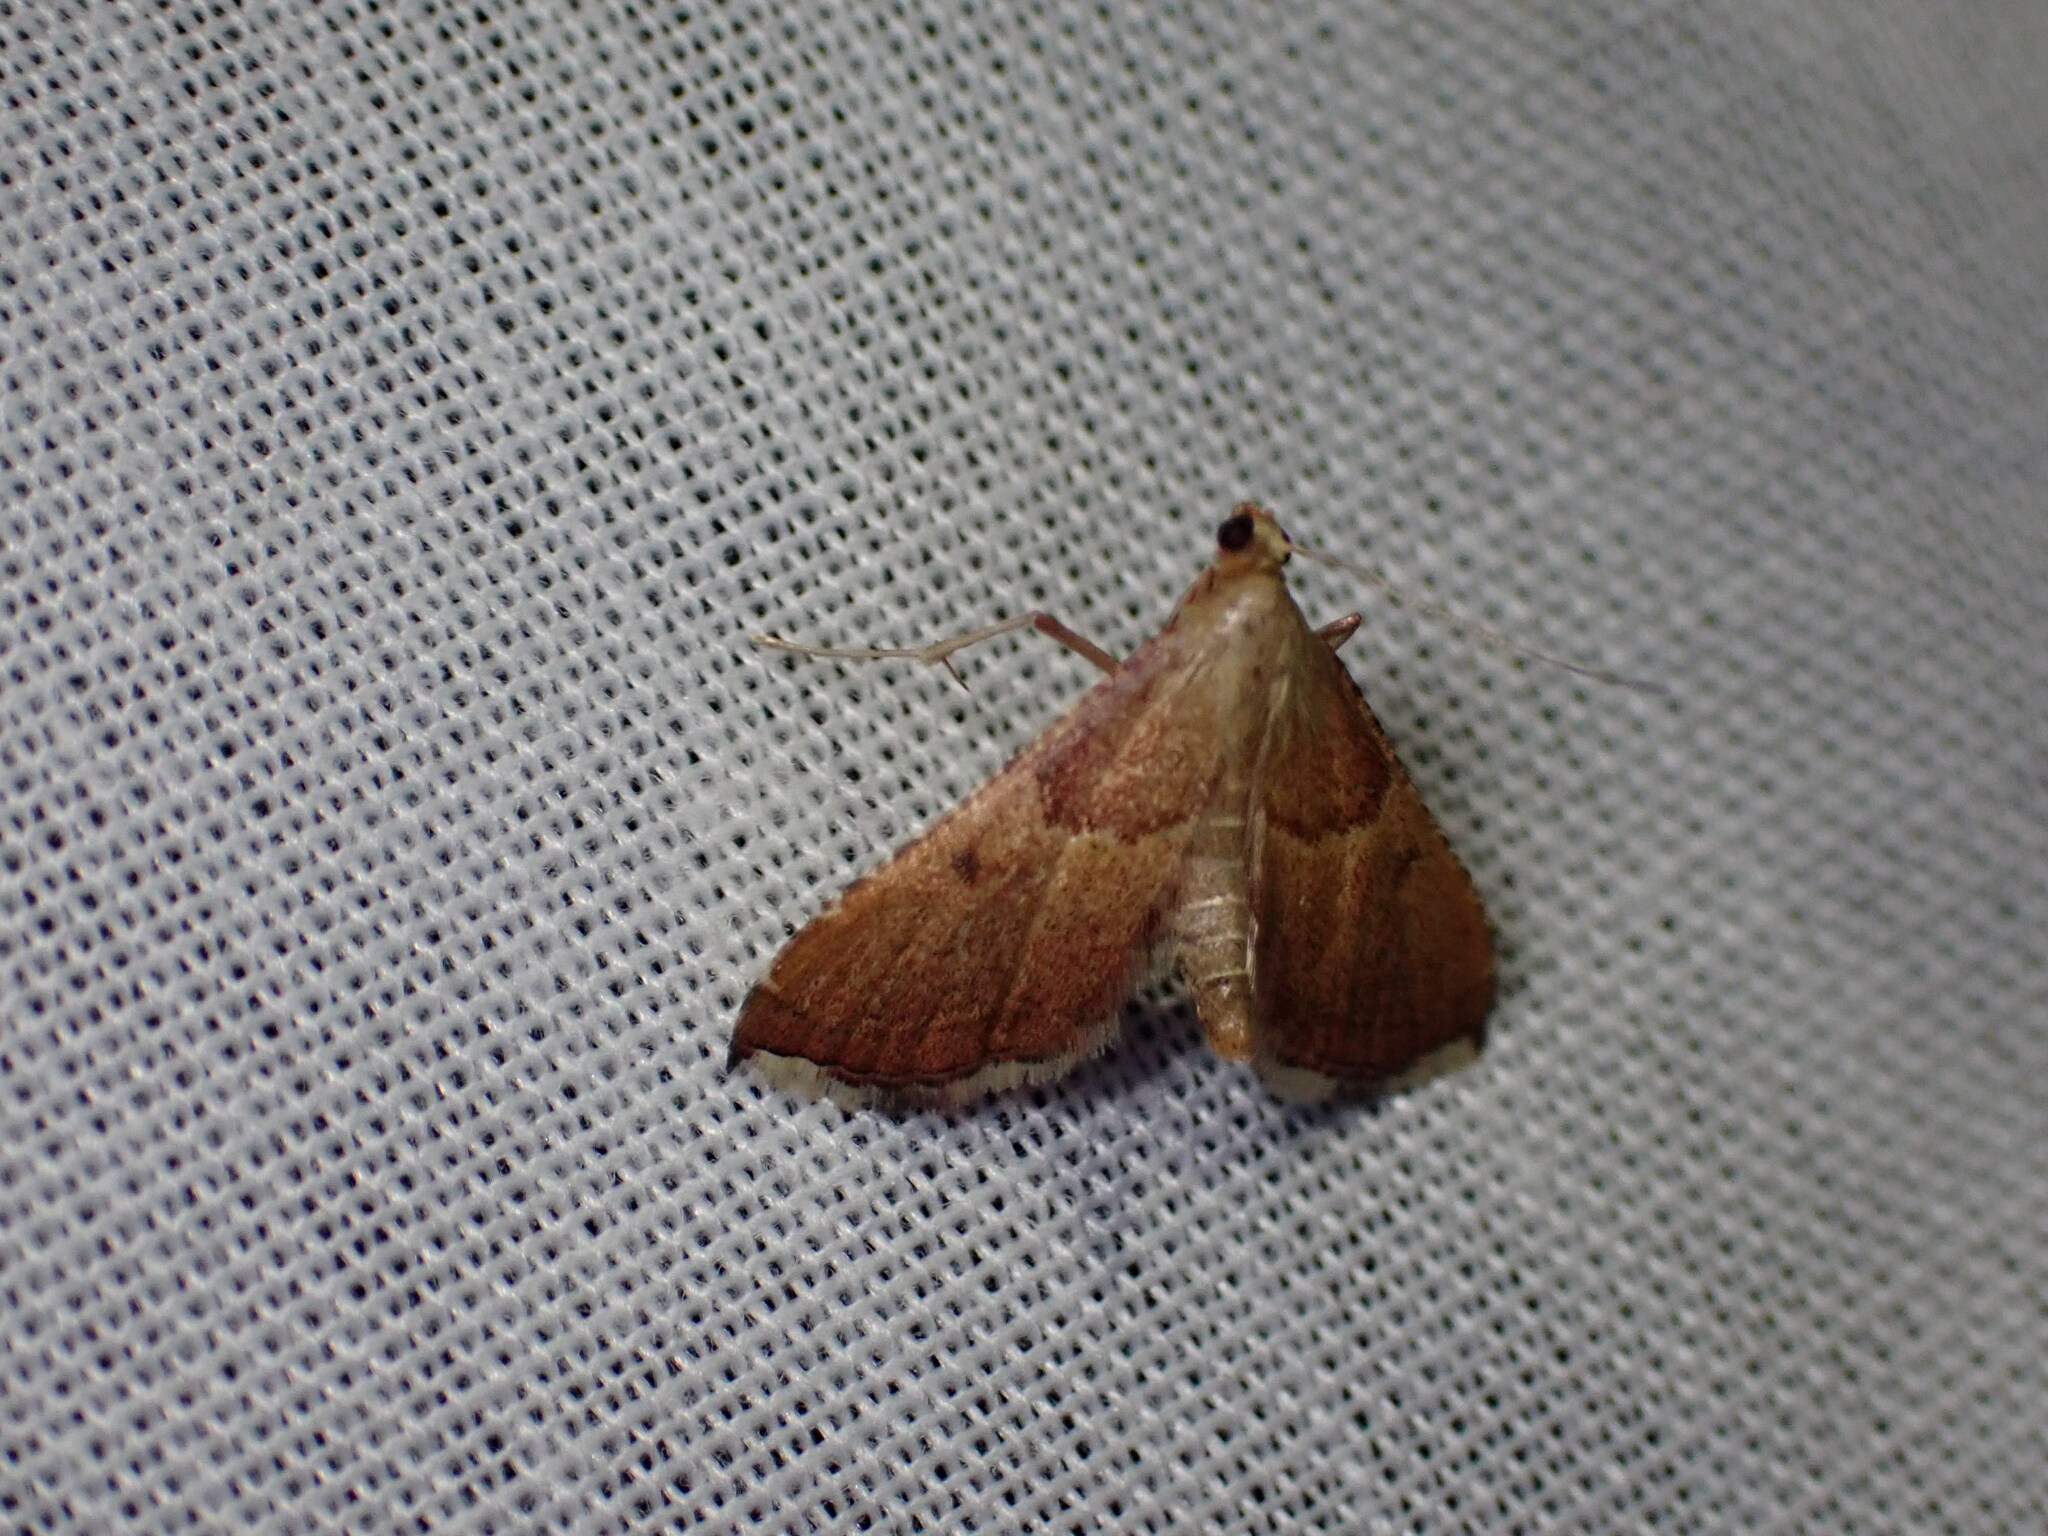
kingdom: Animalia
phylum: Arthropoda
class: Insecta
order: Lepidoptera
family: Pyralidae
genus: Endotricha
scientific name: Endotricha flammealis
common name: Rosy tabby
